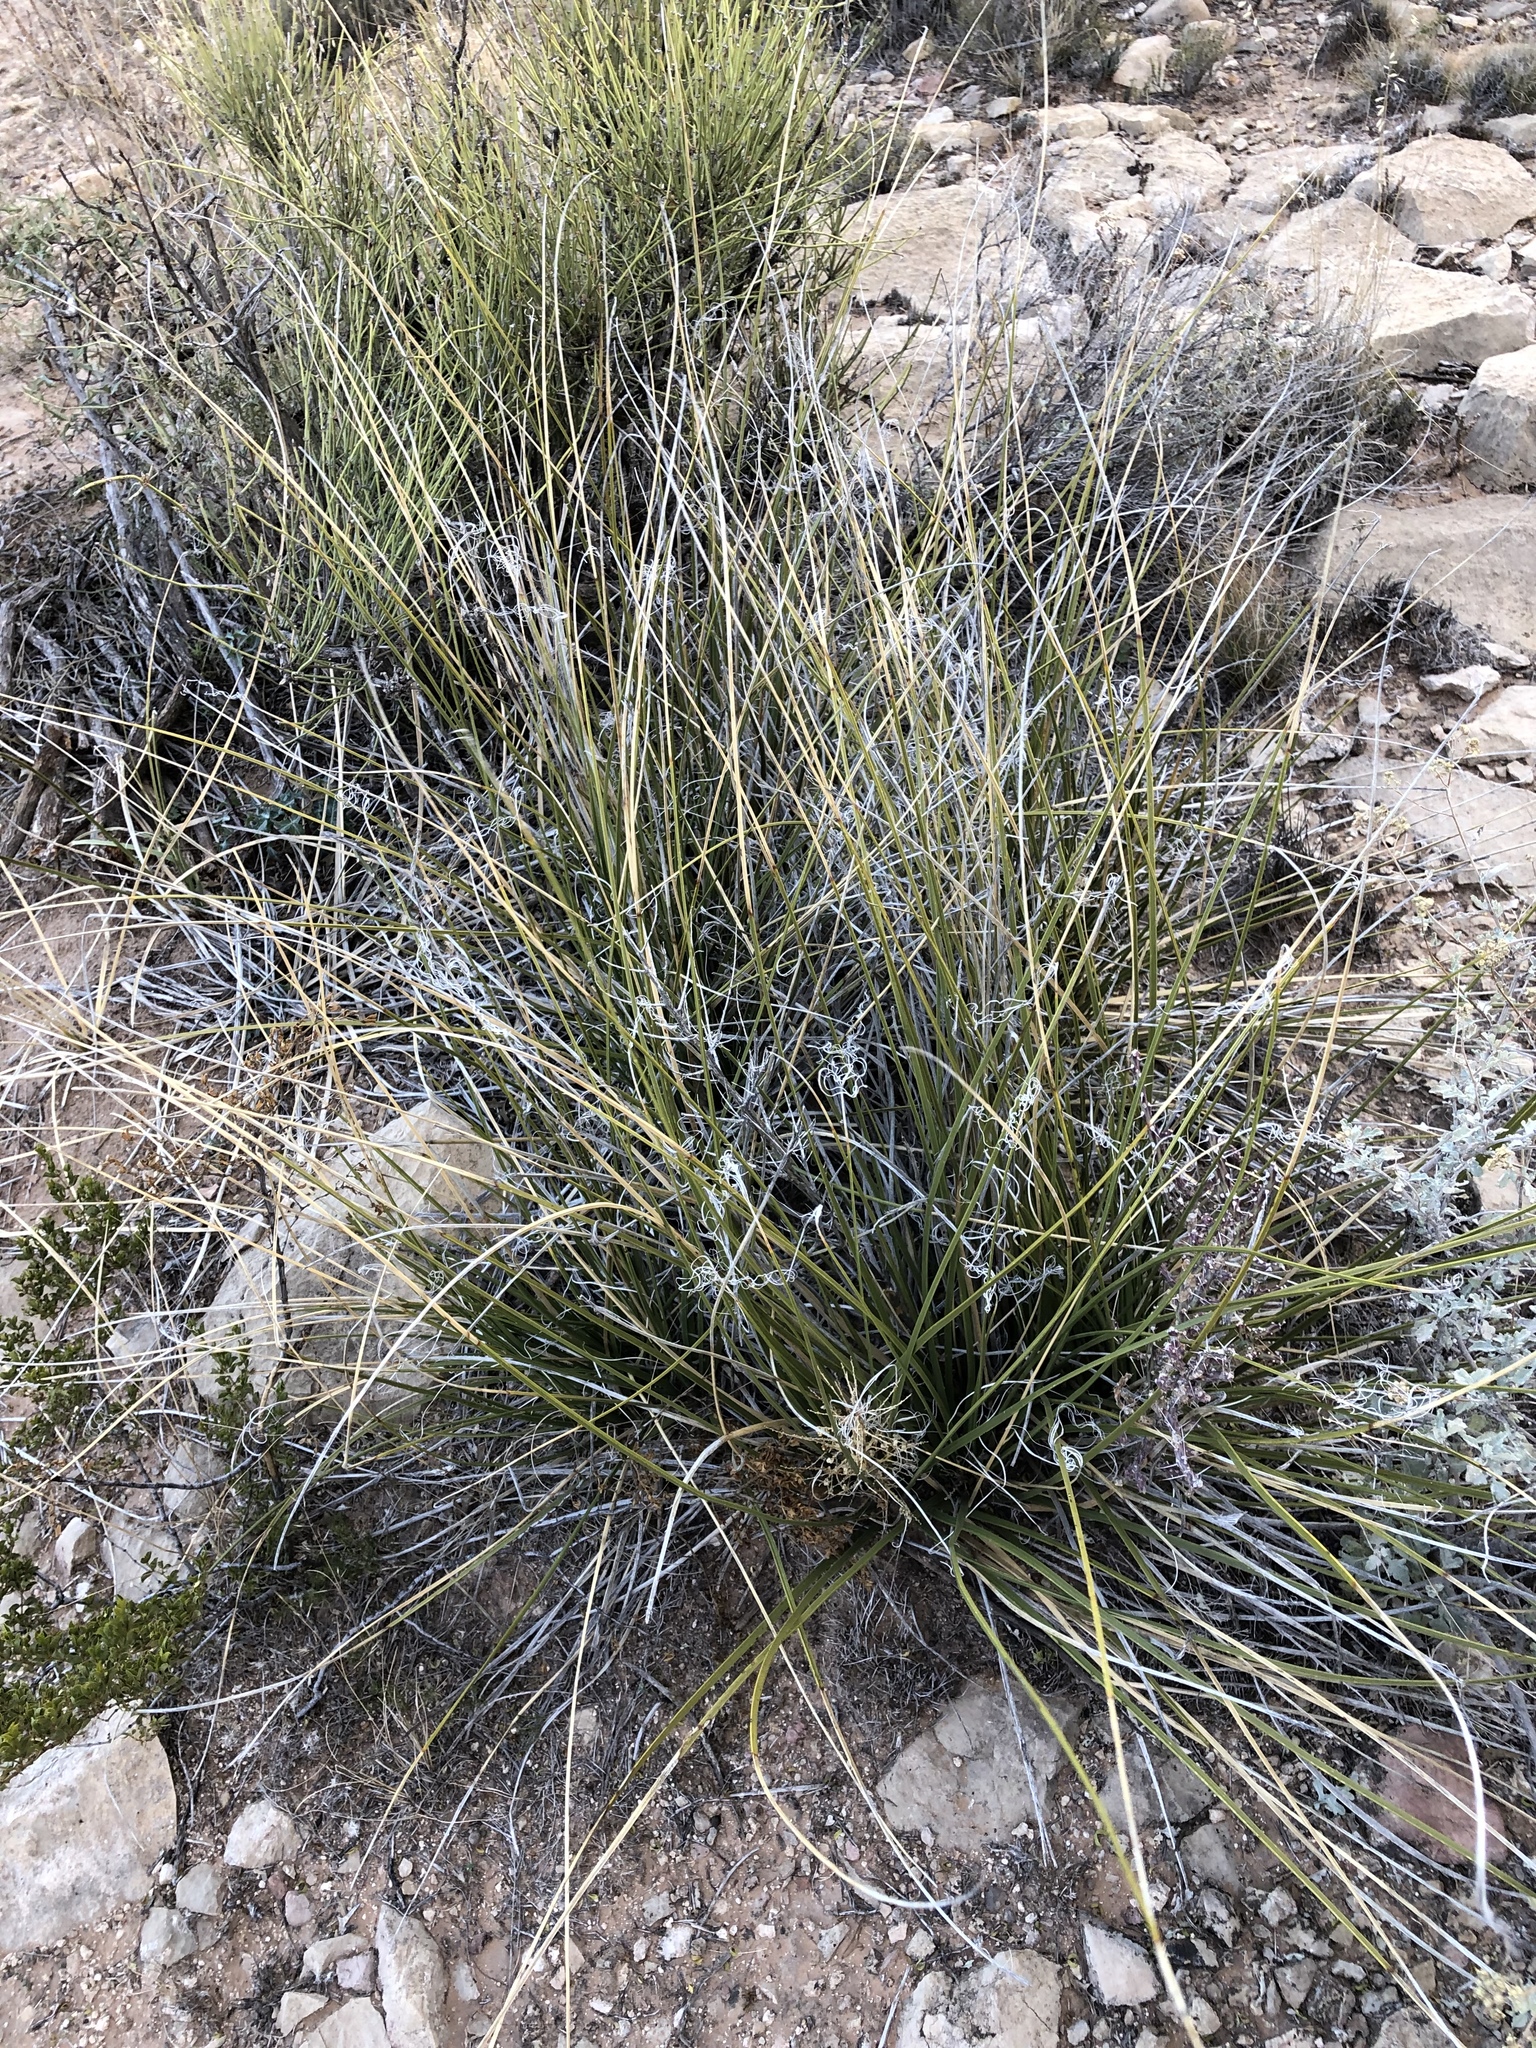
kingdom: Plantae
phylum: Tracheophyta
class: Liliopsida
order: Asparagales
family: Asparagaceae
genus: Nolina
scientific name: Nolina texana
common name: Texas sacahuiste
